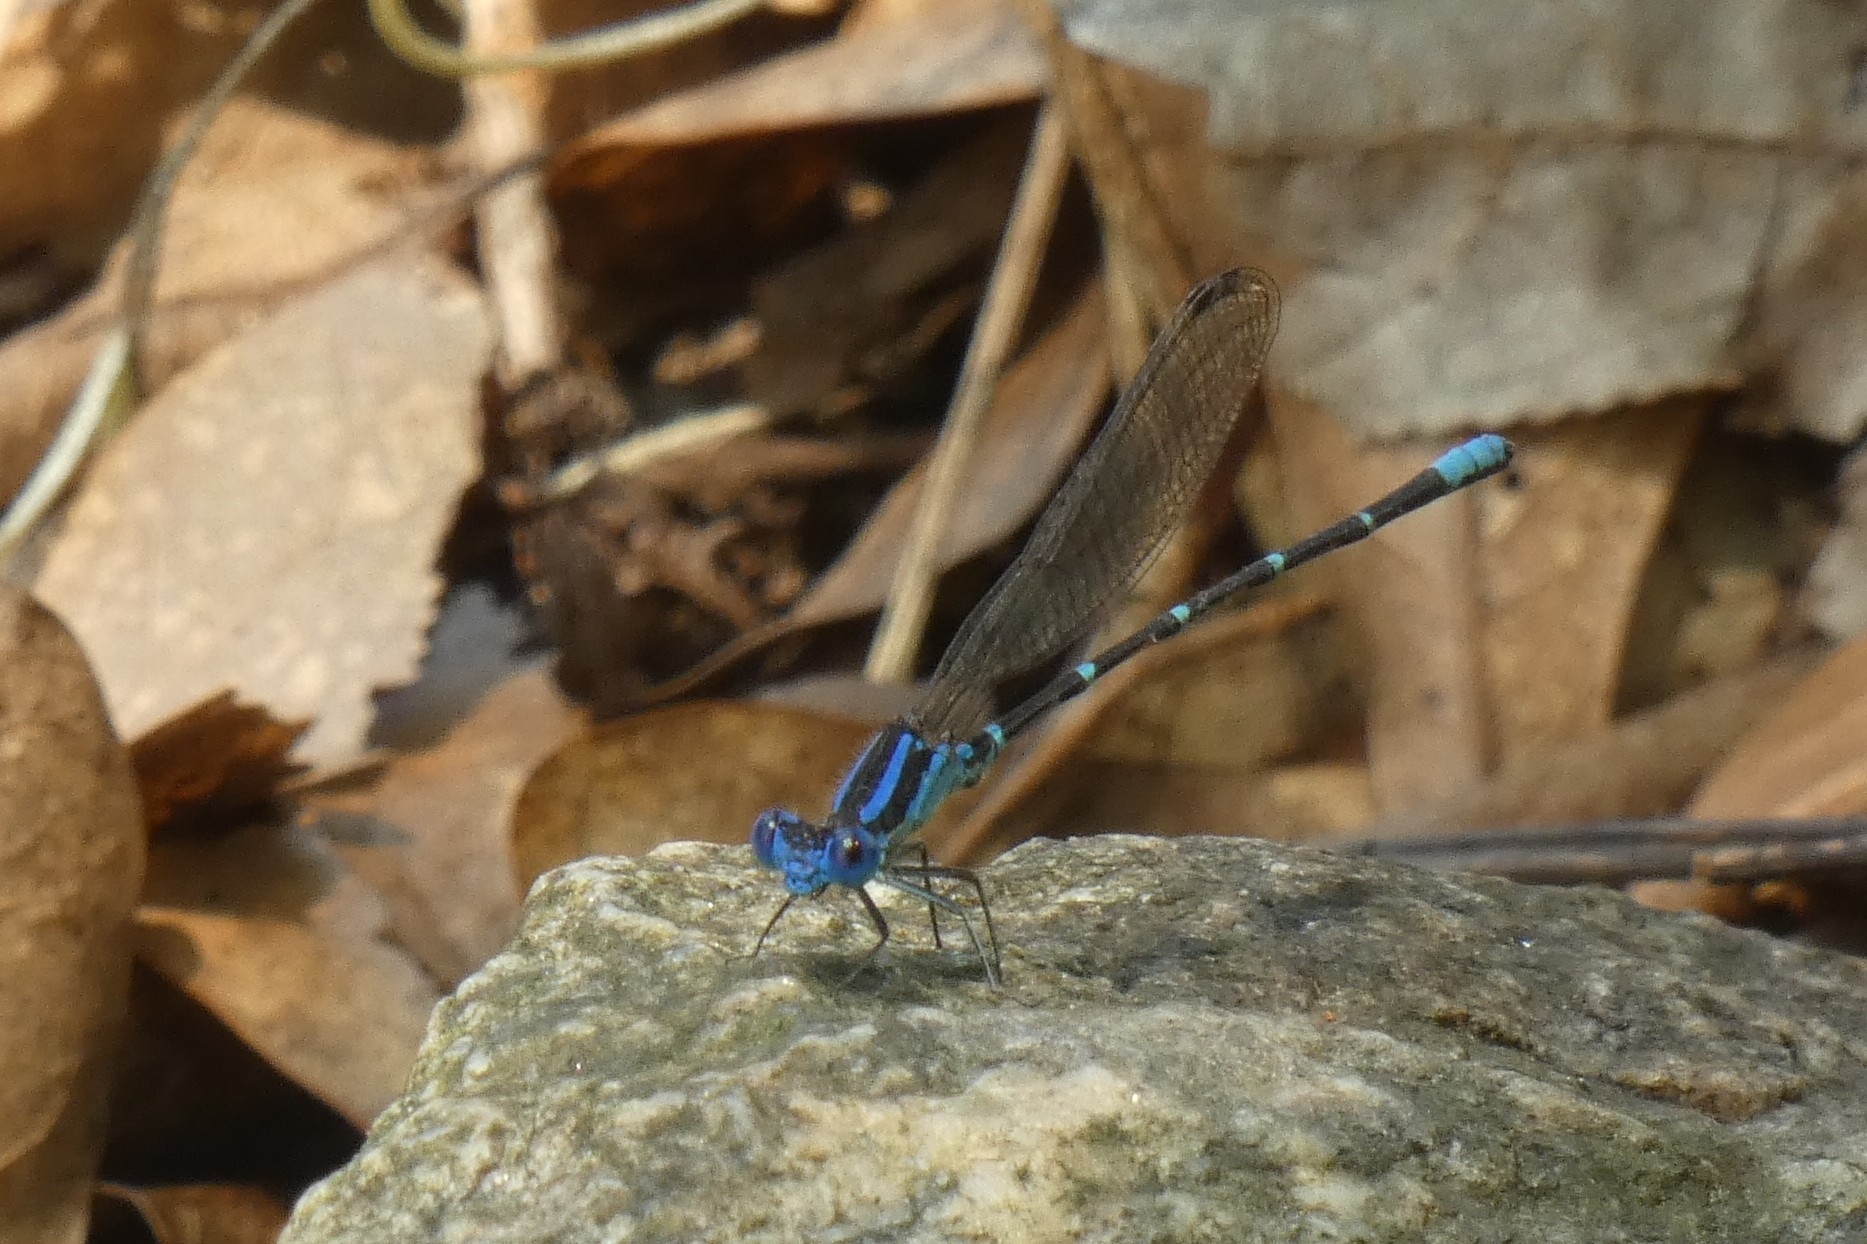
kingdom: Animalia
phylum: Arthropoda
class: Insecta
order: Odonata
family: Coenagrionidae
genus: Argia
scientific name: Argia sedula
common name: Blue-ringed dancer
